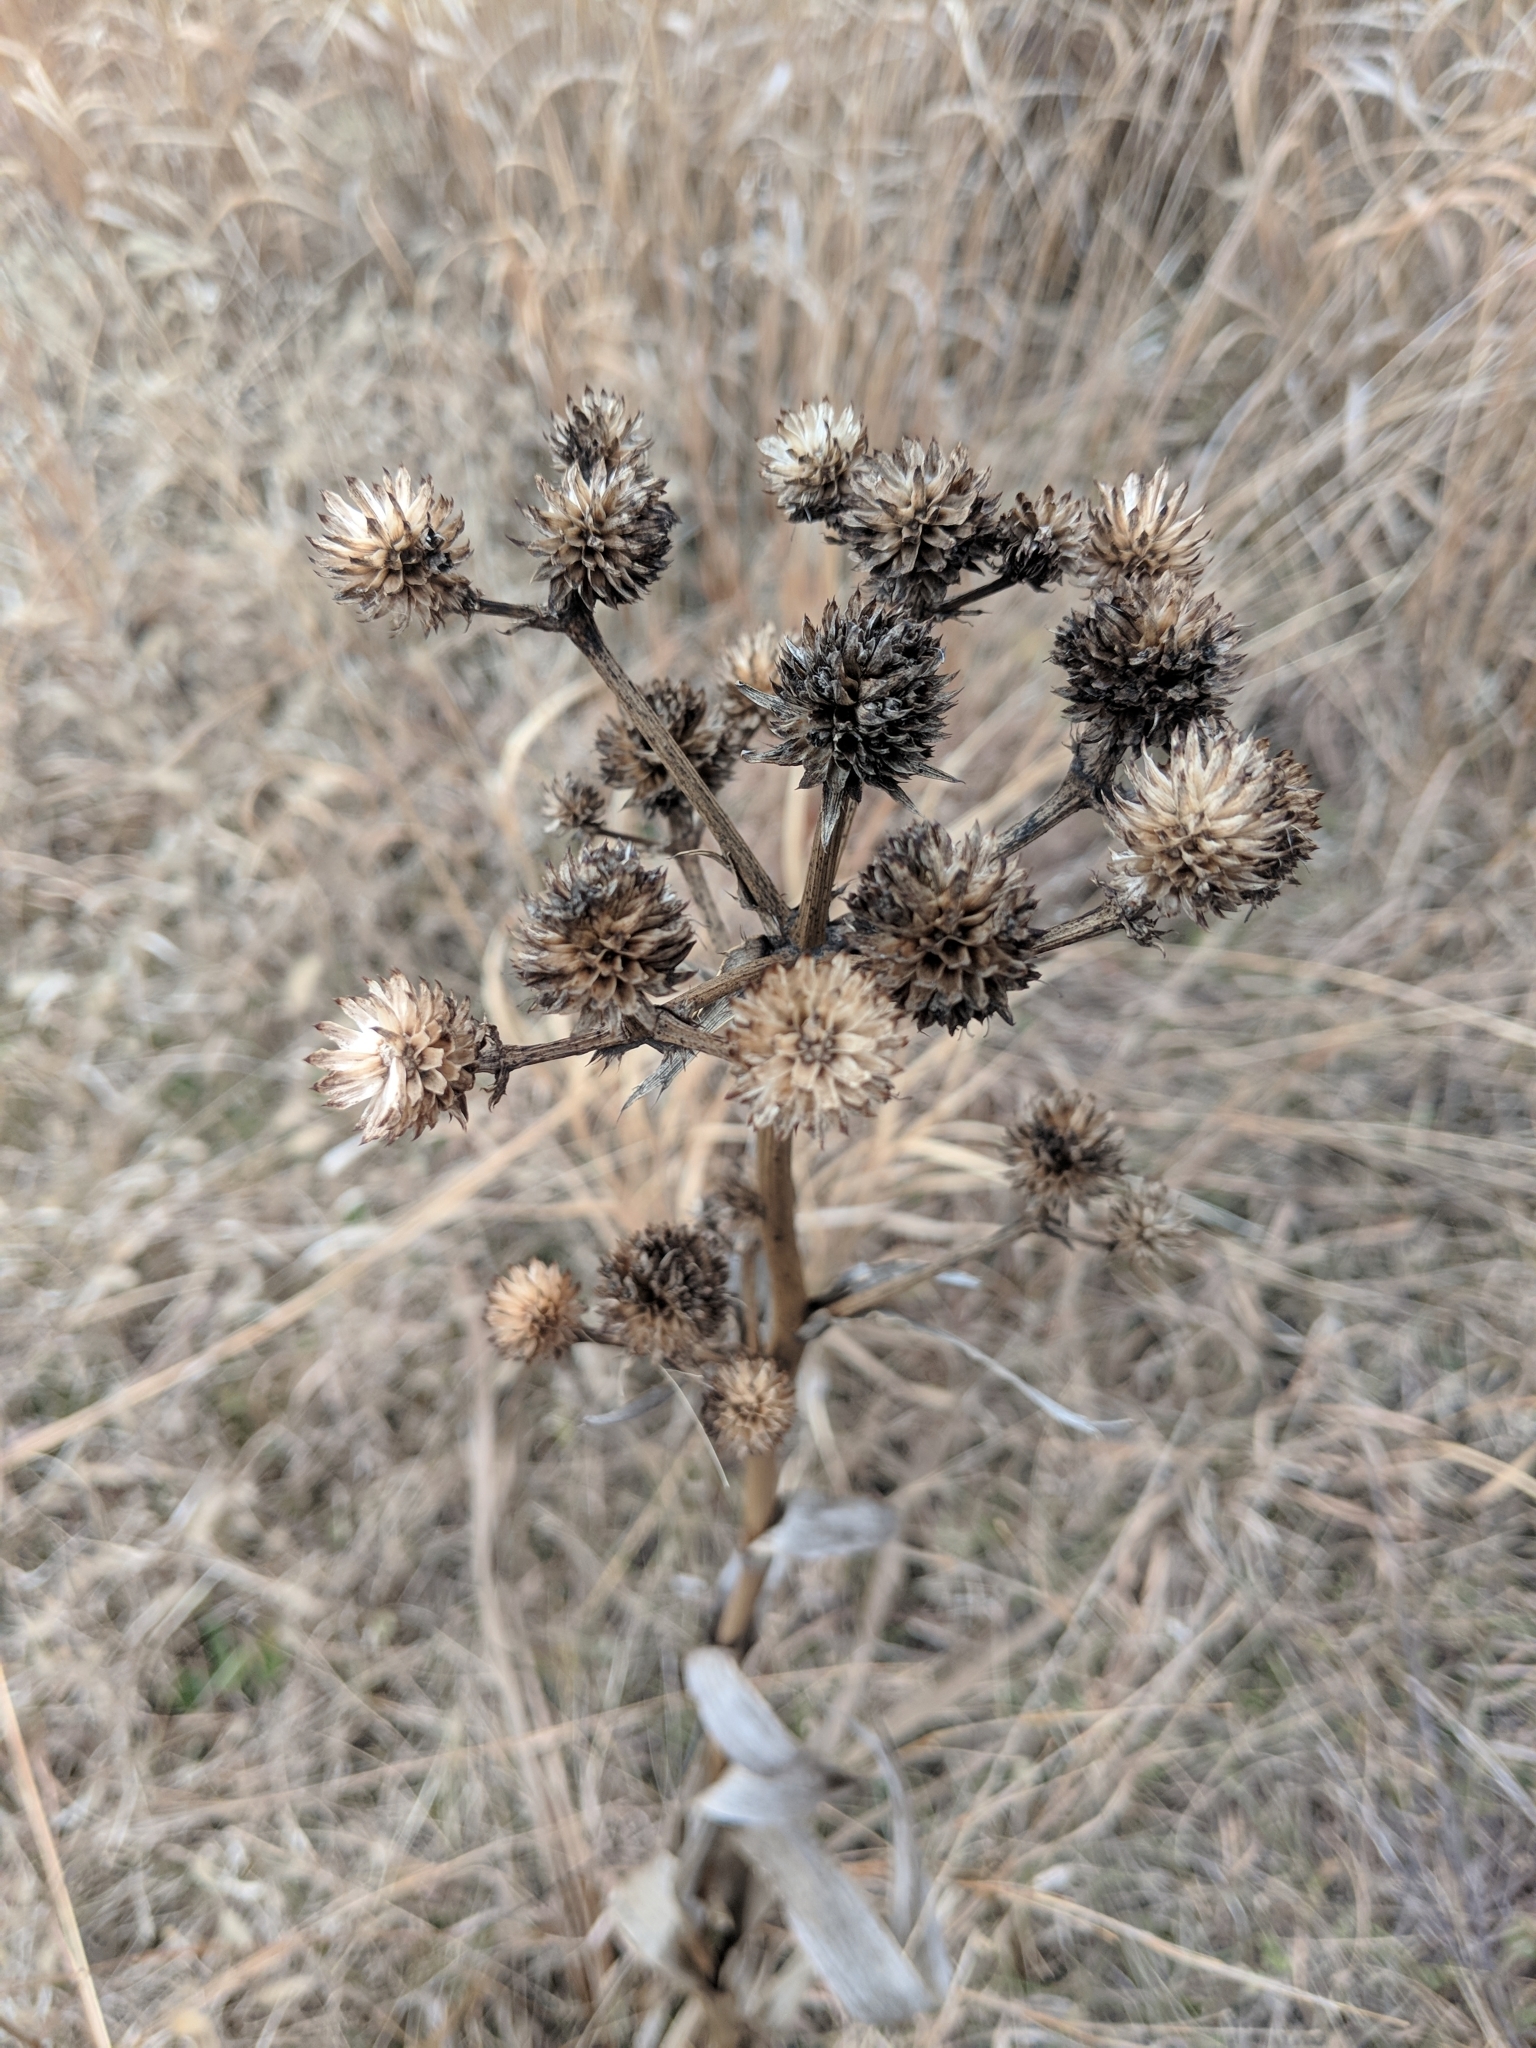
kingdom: Plantae
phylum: Tracheophyta
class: Magnoliopsida
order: Apiales
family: Apiaceae
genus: Eryngium
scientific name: Eryngium yuccifolium
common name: Button eryngo
